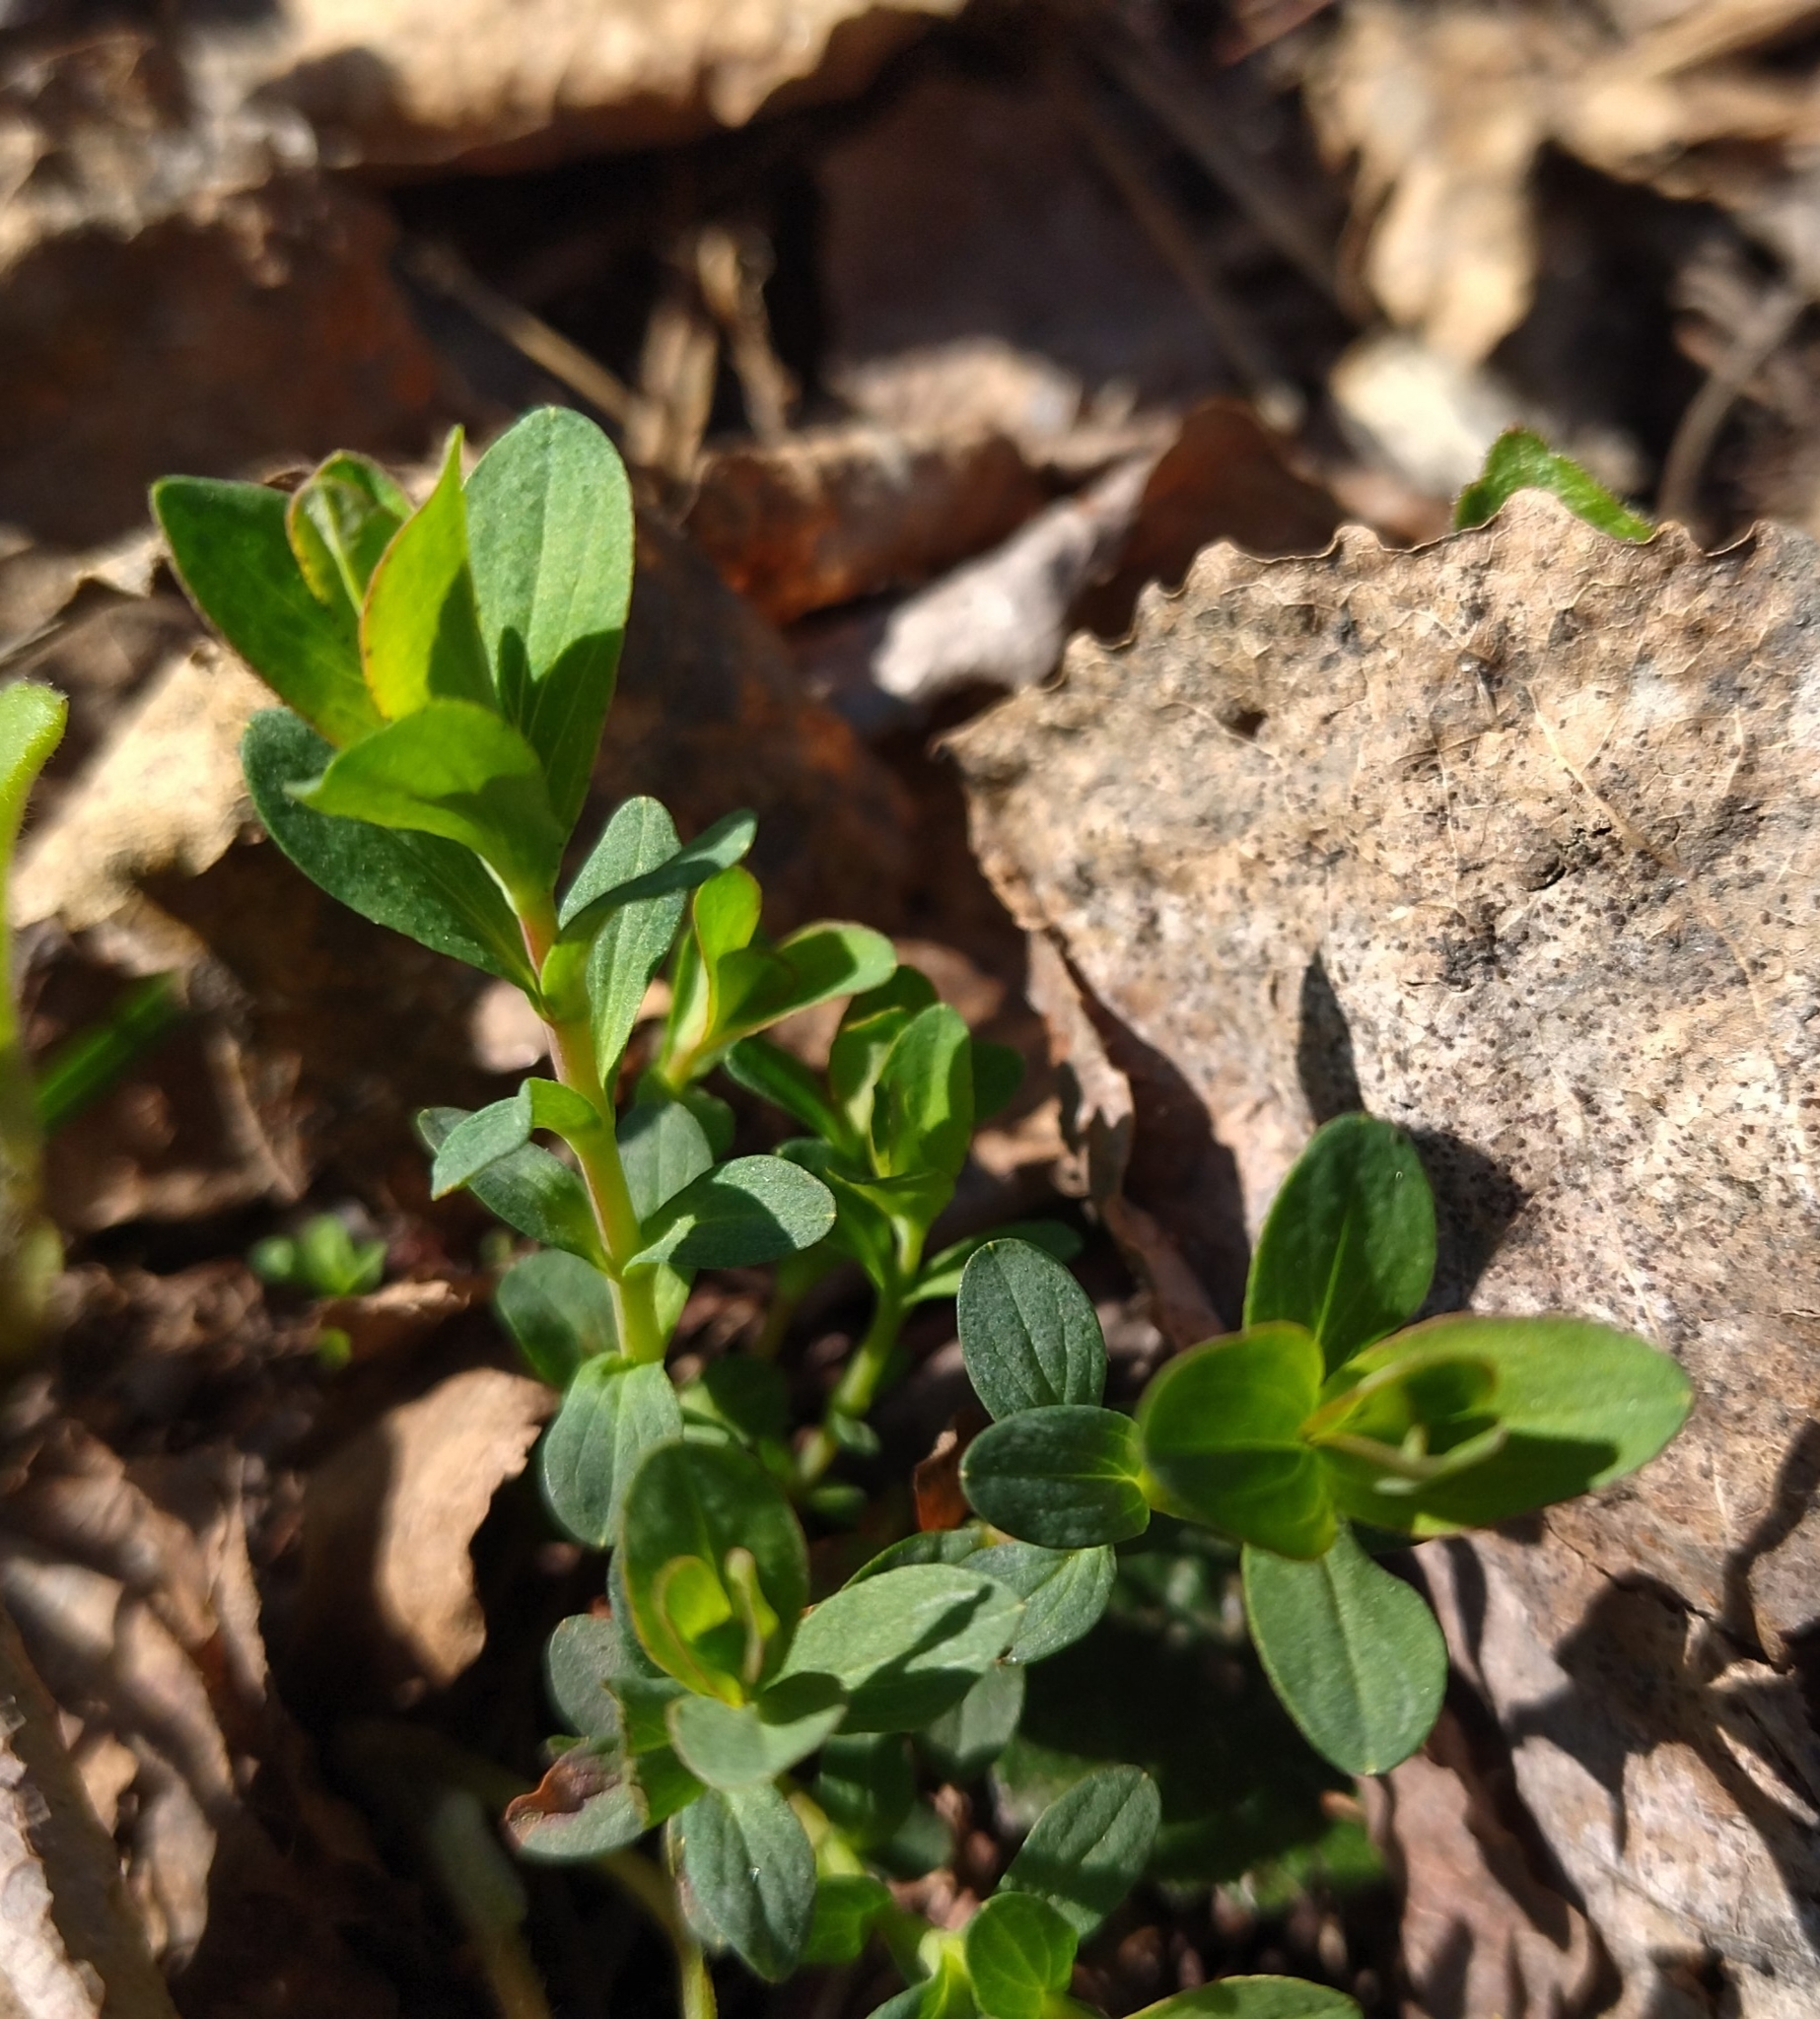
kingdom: Plantae
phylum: Tracheophyta
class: Magnoliopsida
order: Malpighiales
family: Hypericaceae
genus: Hypericum
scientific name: Hypericum perforatum
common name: Common st. johnswort
